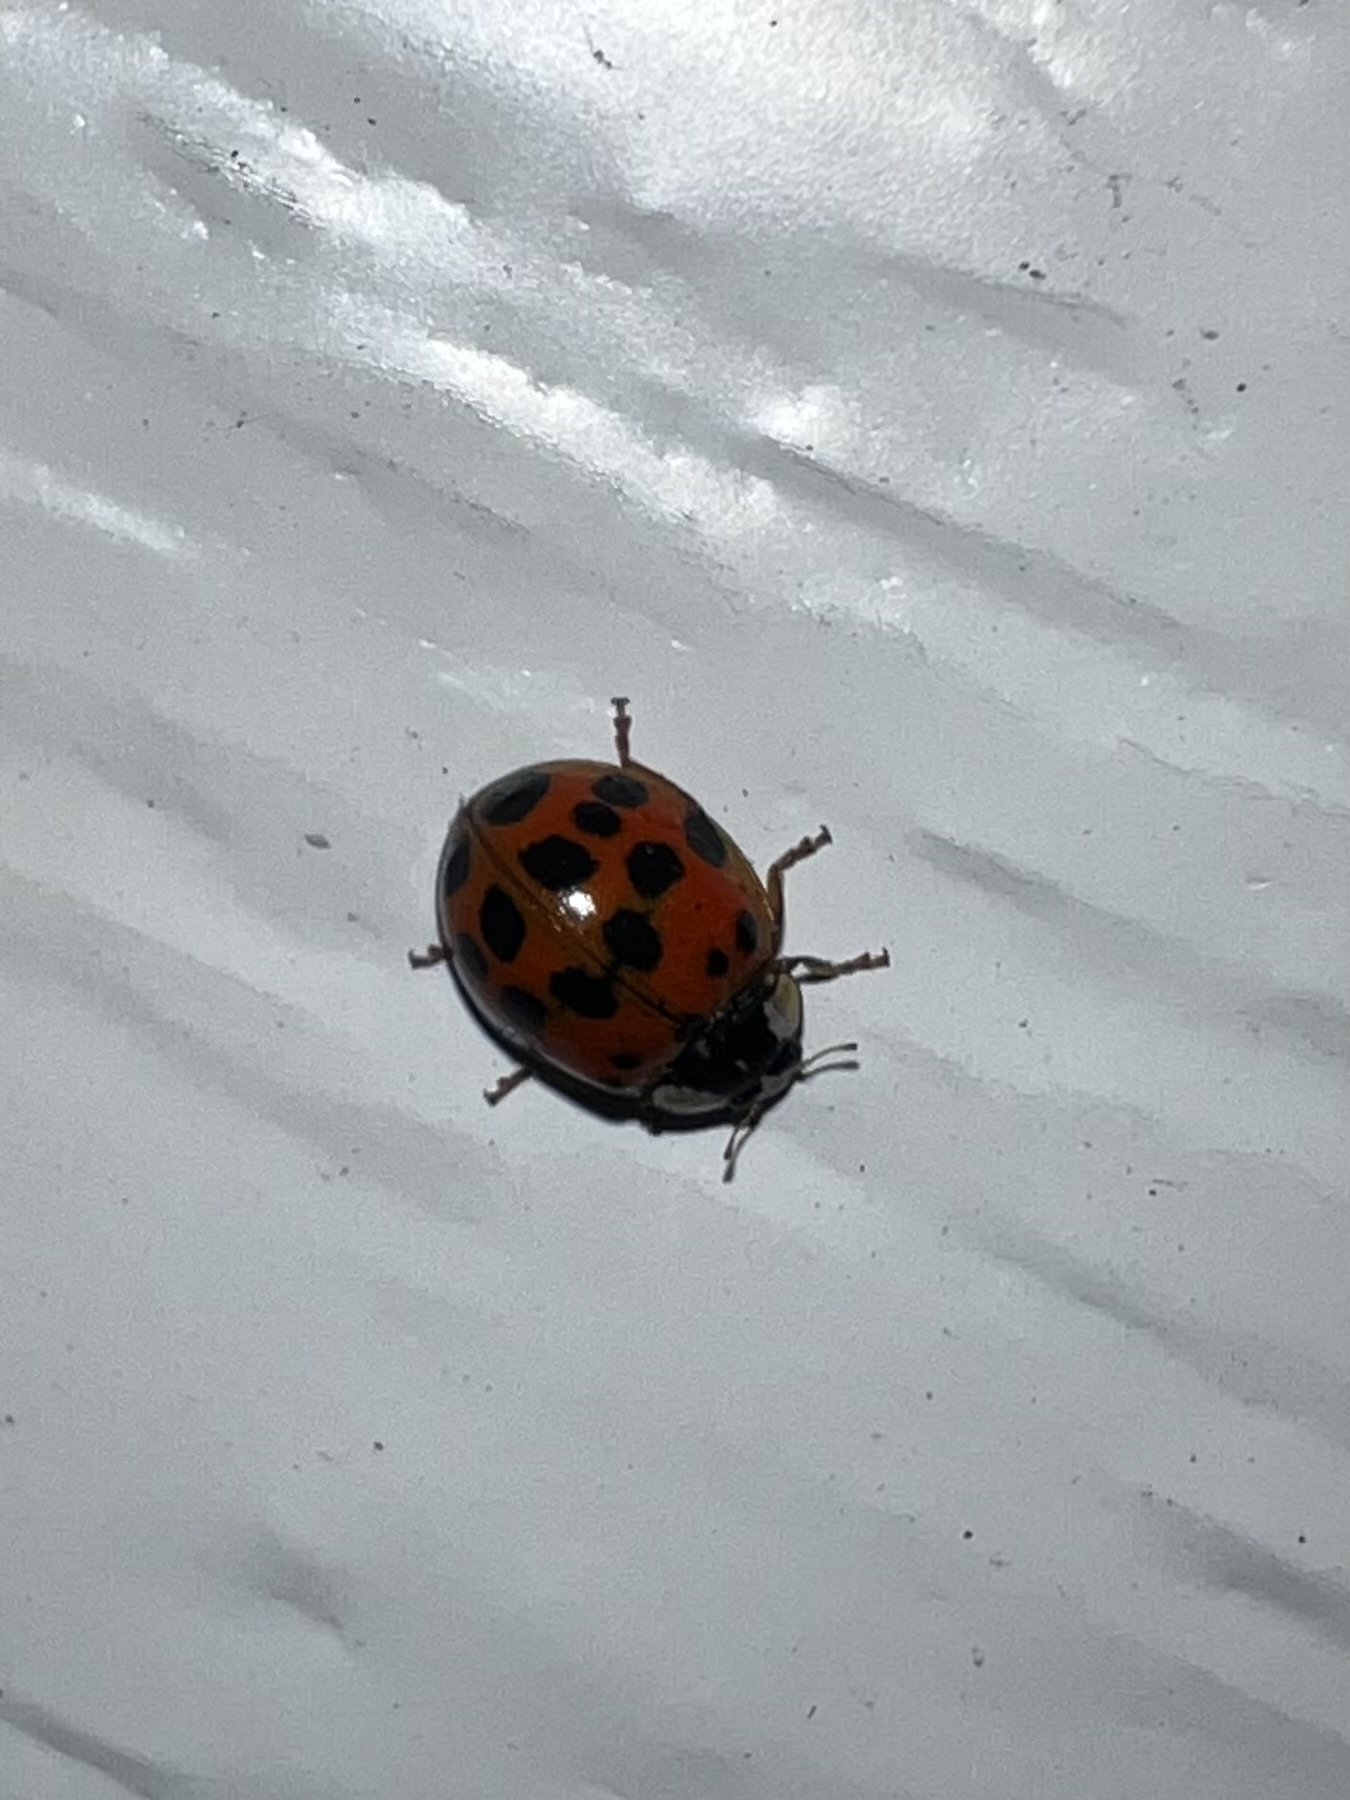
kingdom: Animalia
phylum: Arthropoda
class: Insecta
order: Coleoptera
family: Coccinellidae
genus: Harmonia
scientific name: Harmonia axyridis
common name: Harlequin ladybird
